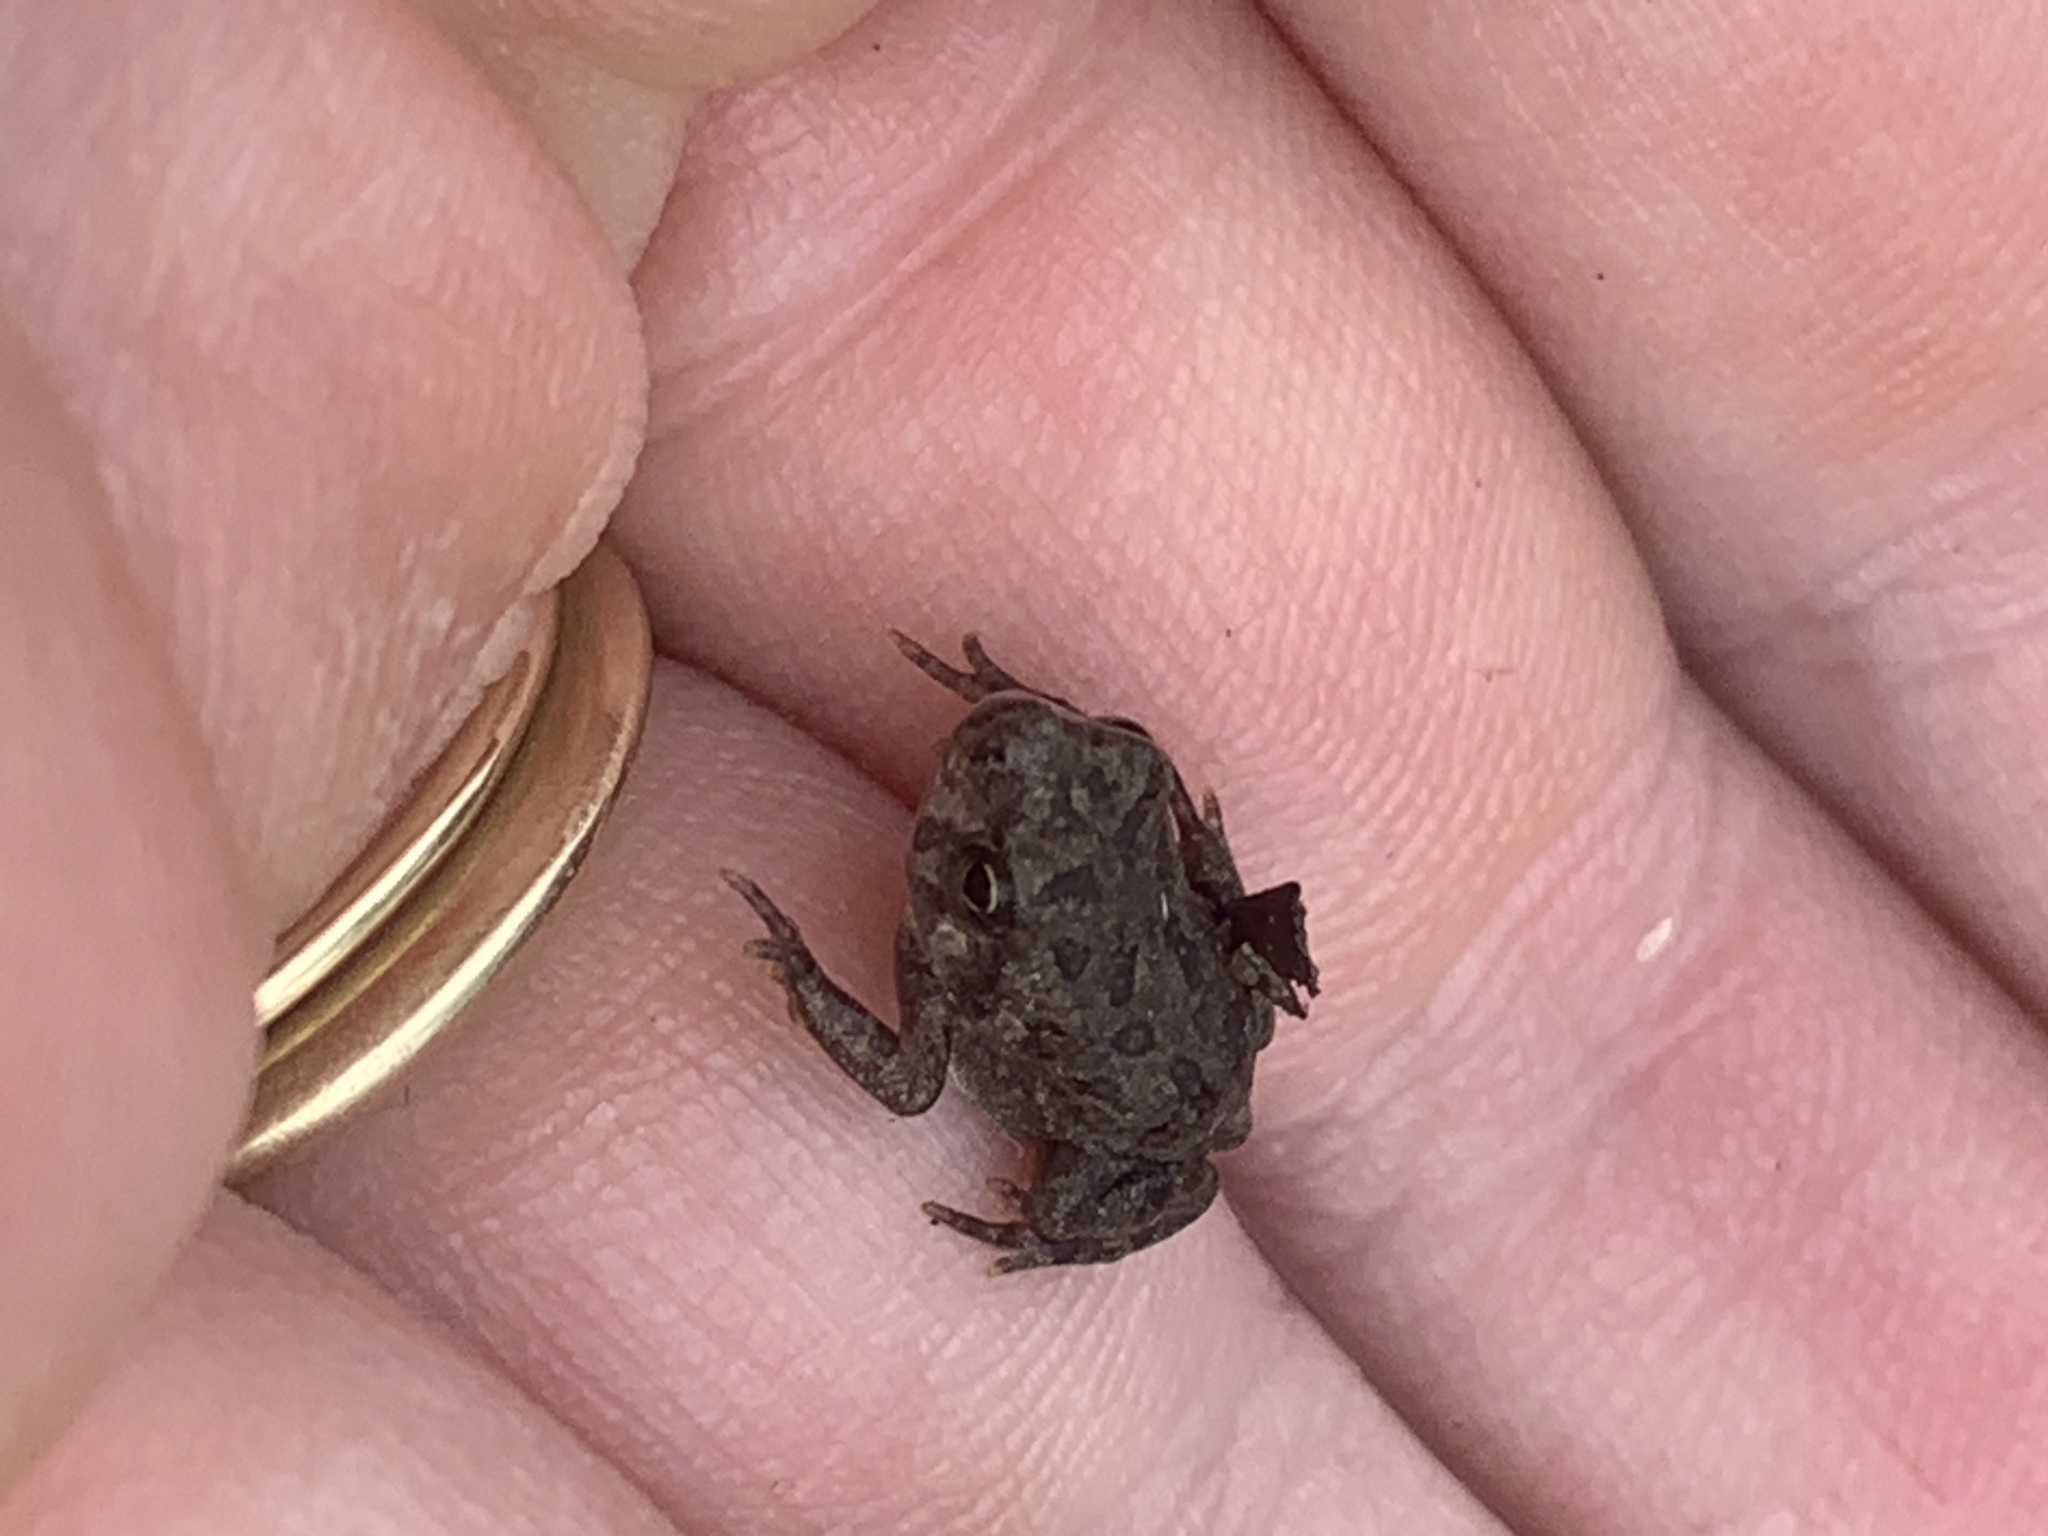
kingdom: Animalia
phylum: Chordata
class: Amphibia
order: Anura
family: Bufonidae
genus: Anaxyrus
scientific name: Anaxyrus fowleri
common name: Fowler's toad
